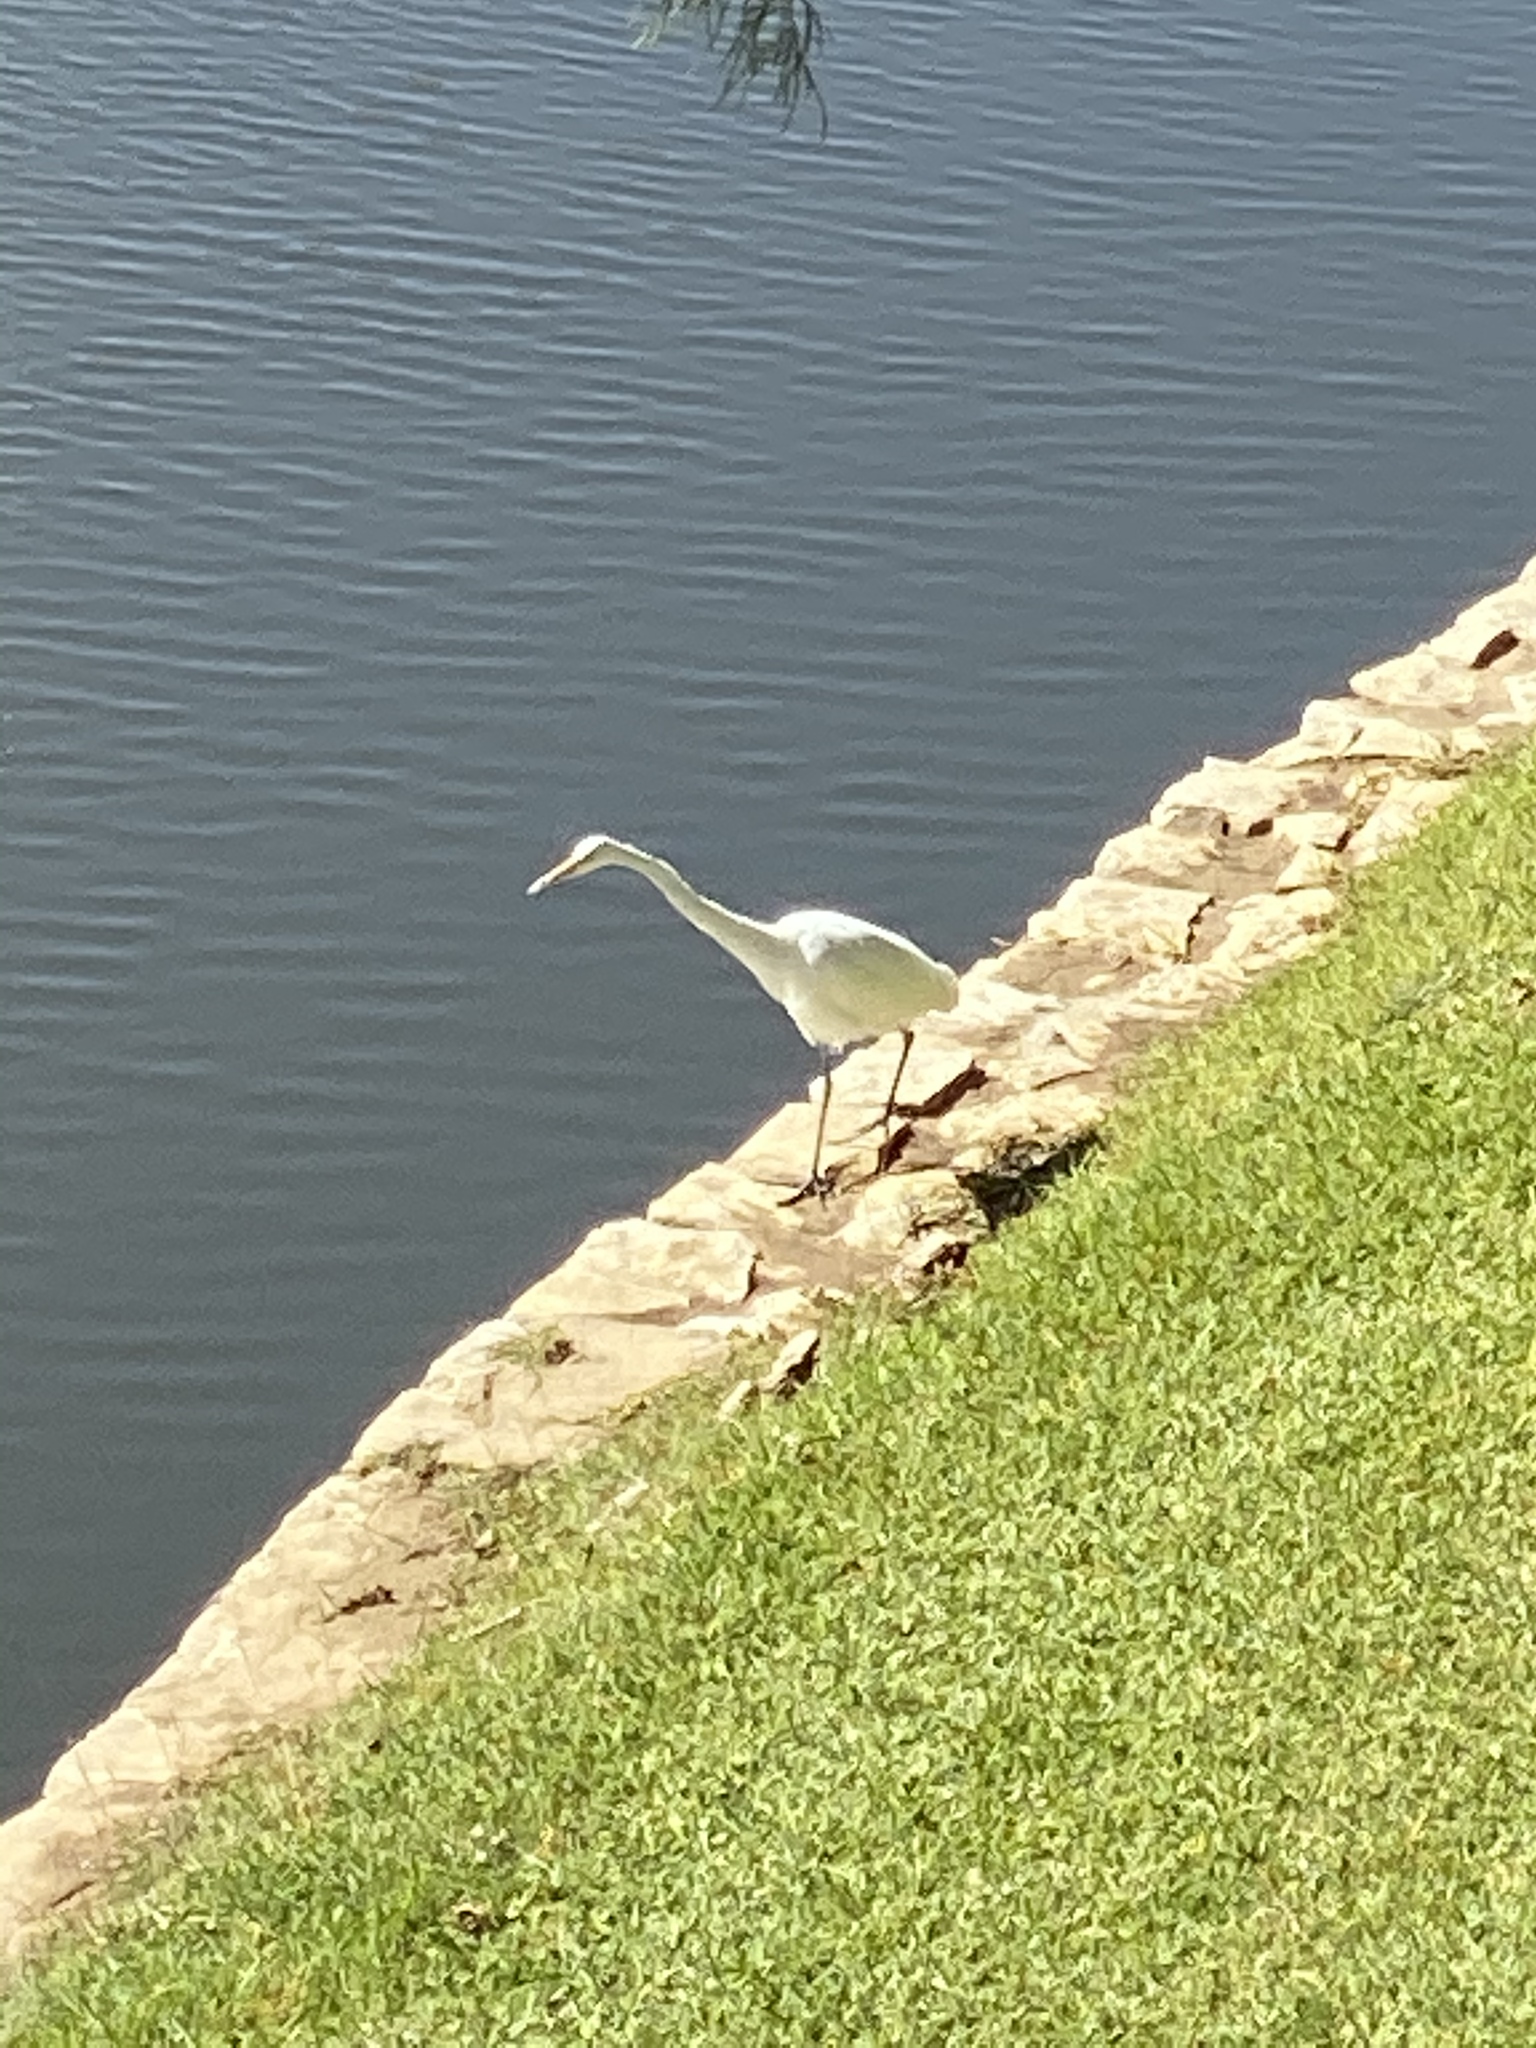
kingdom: Animalia
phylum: Chordata
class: Aves
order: Pelecaniformes
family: Ardeidae
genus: Ardea
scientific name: Ardea alba
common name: Great egret
